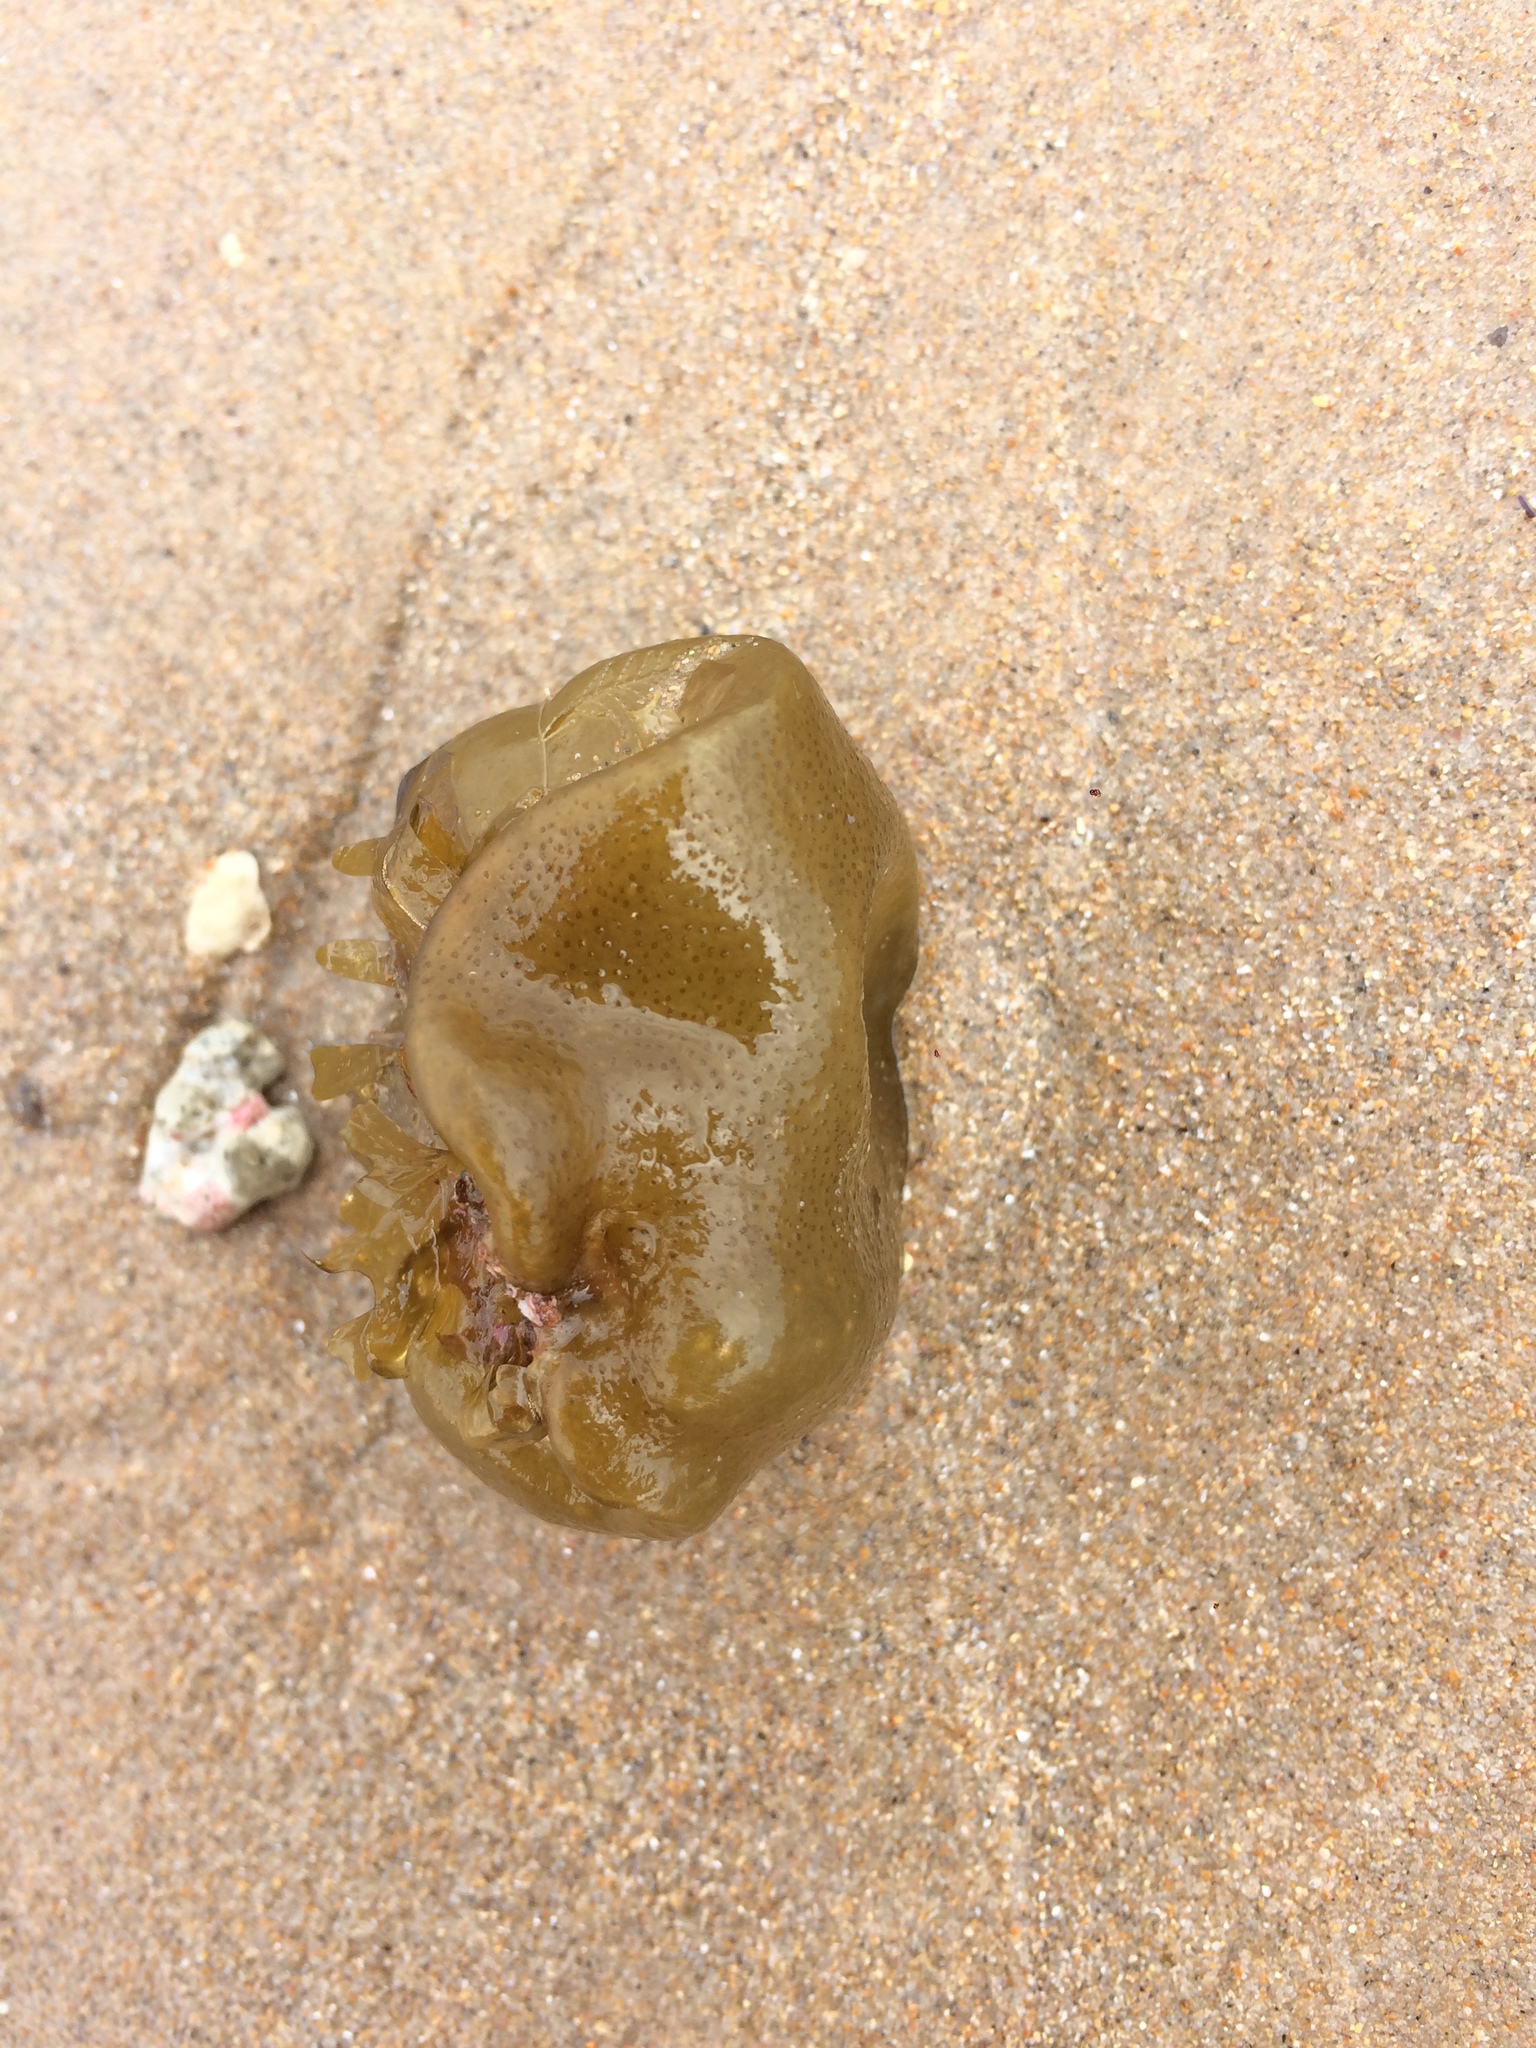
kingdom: Chromista
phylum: Ochrophyta
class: Phaeophyceae
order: Scytosiphonales
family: Scytosiphonaceae
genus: Colpomenia
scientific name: Colpomenia sinuosa
